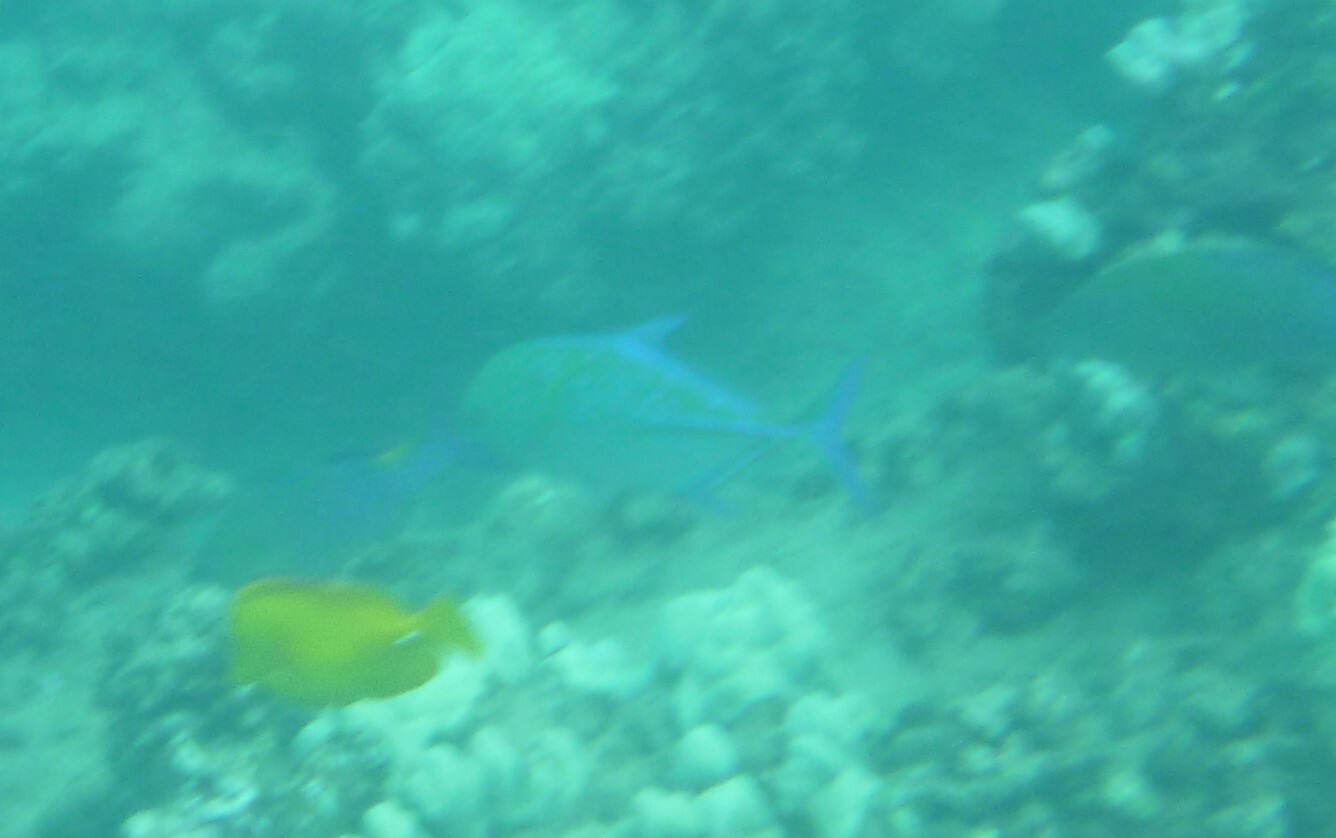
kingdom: Animalia
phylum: Chordata
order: Perciformes
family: Carangidae
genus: Caranx
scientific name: Caranx melampygus
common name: Bluefin trevally
